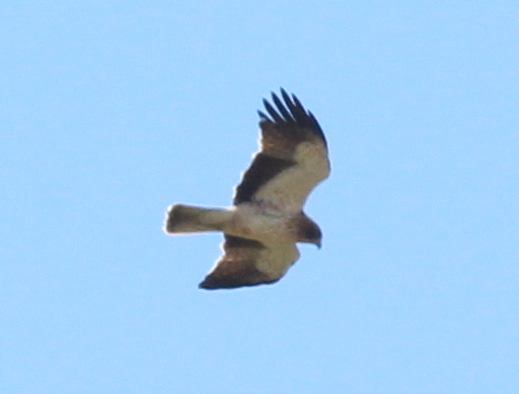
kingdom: Animalia
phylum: Chordata
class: Aves
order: Accipitriformes
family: Accipitridae
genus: Hieraaetus
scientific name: Hieraaetus pennatus
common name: Booted eagle
